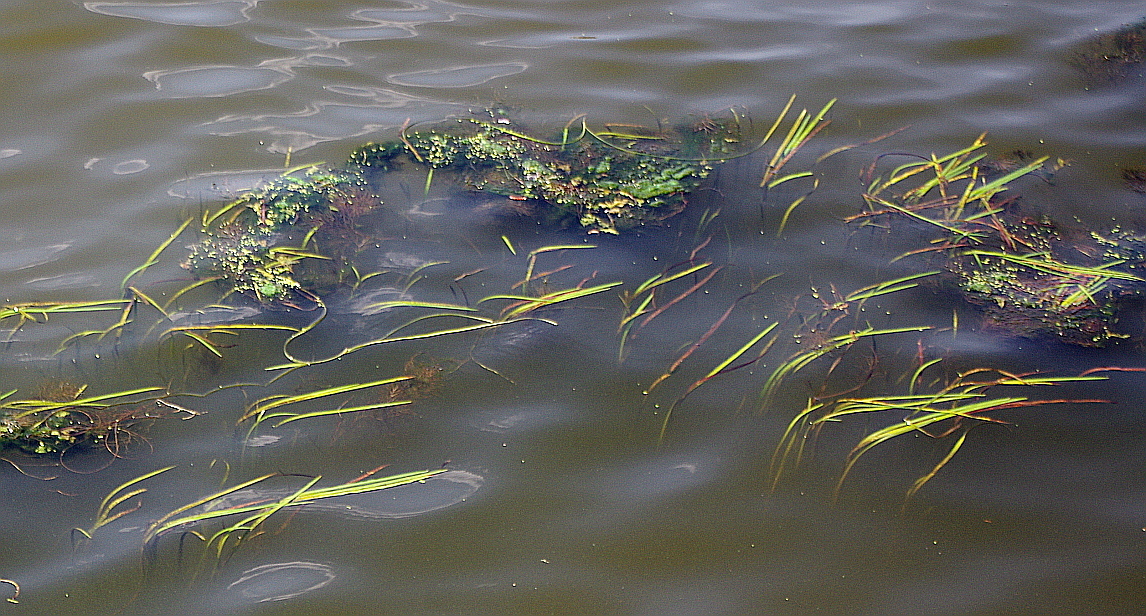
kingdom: Plantae
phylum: Tracheophyta
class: Liliopsida
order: Poales
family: Typhaceae
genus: Sparganium
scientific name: Sparganium emersum
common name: Unbranched bur-reed
